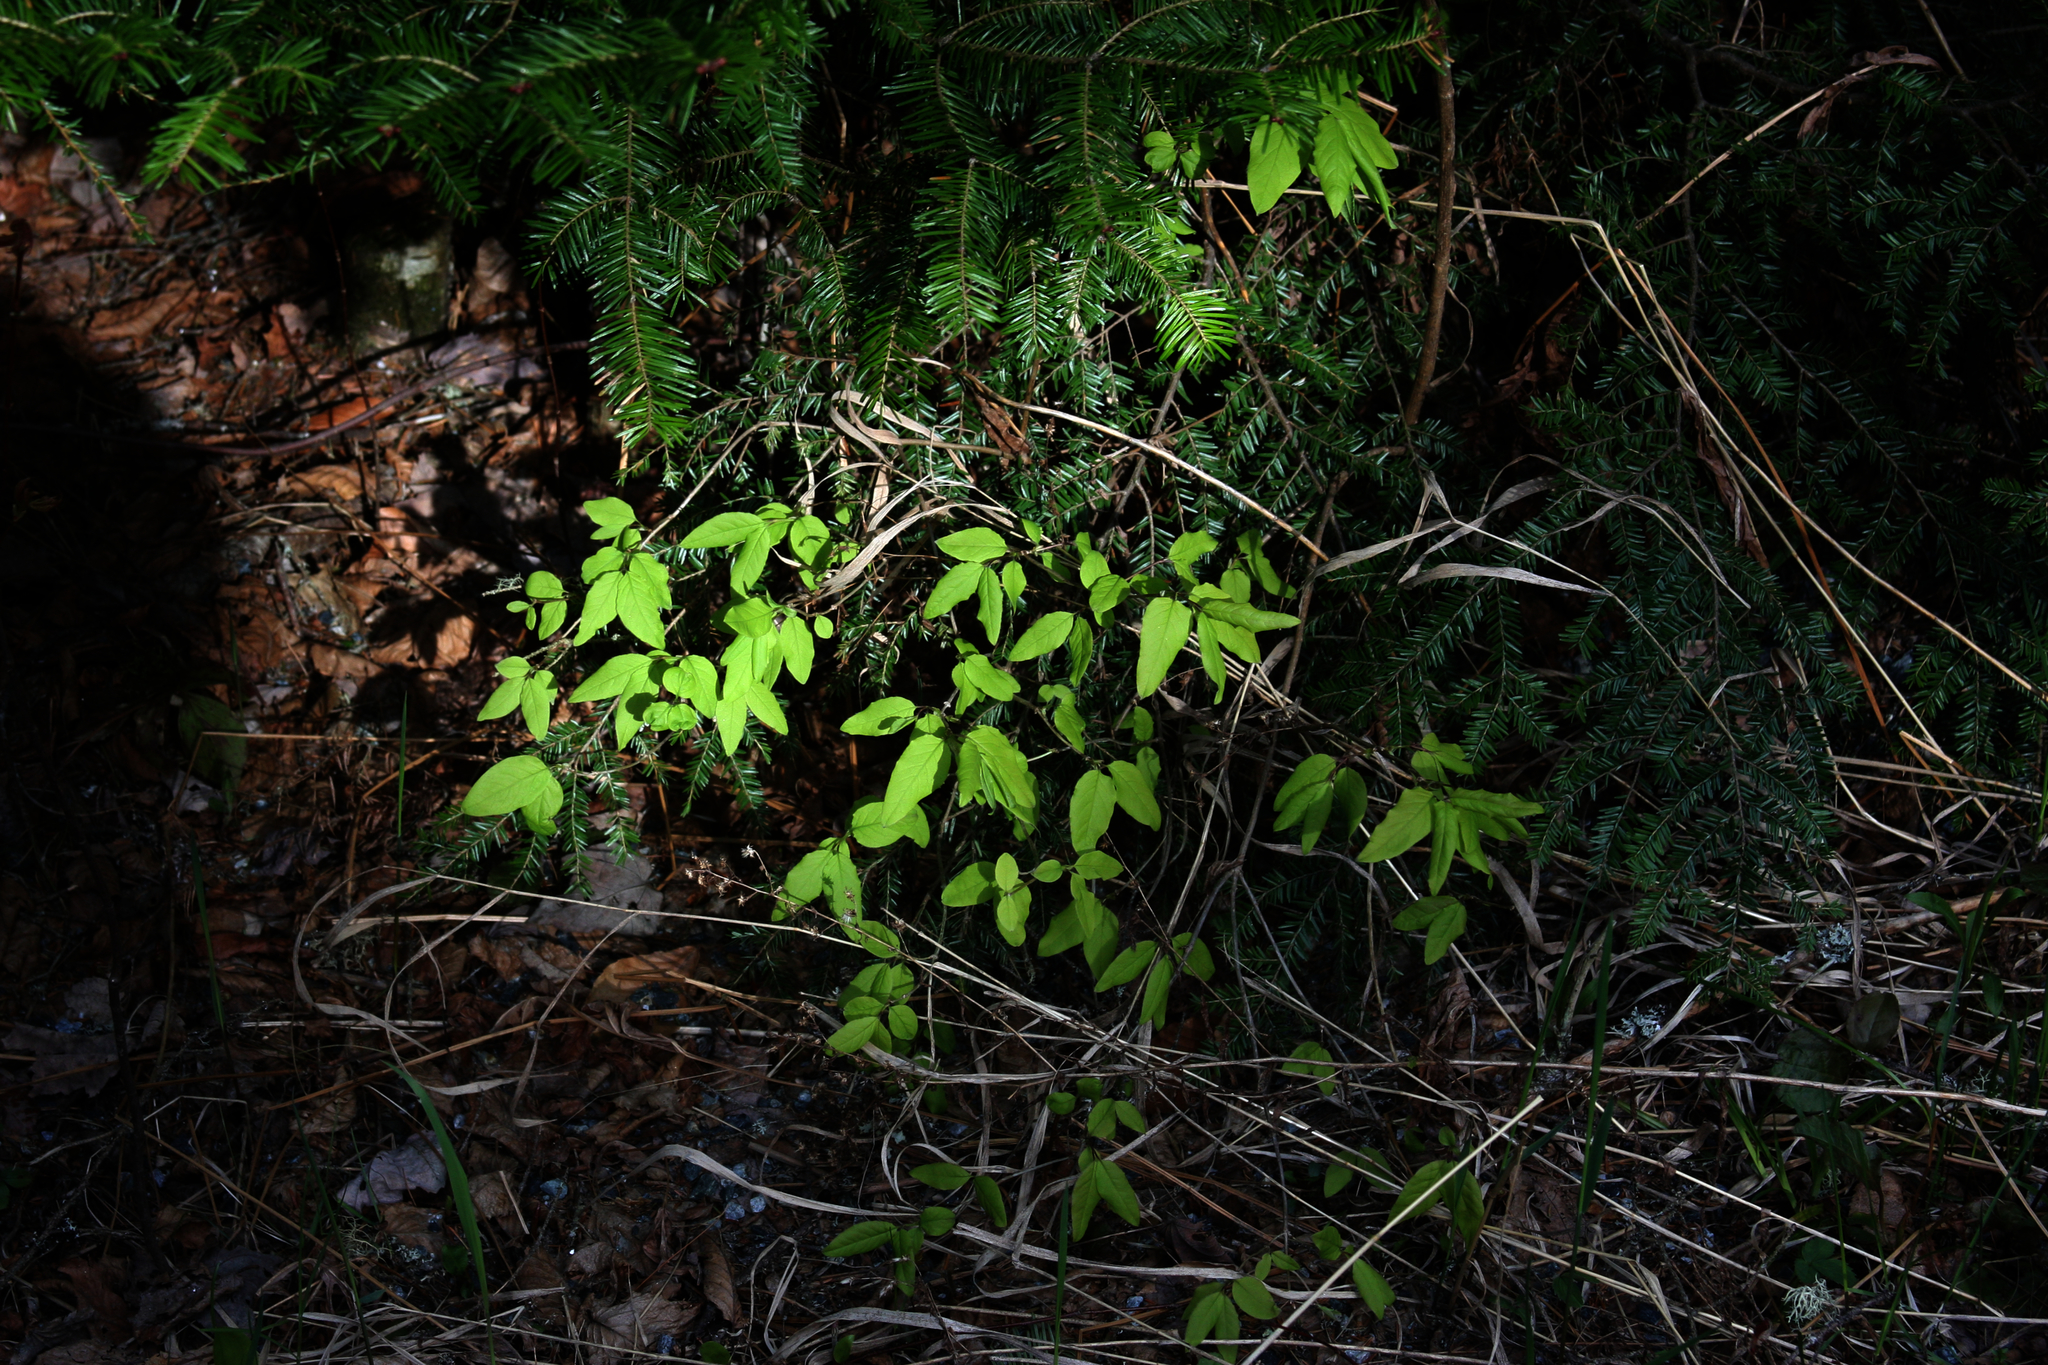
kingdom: Plantae
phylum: Tracheophyta
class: Magnoliopsida
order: Dipsacales
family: Caprifoliaceae
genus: Lonicera
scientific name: Lonicera canadensis
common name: American fly-honeysuckle
